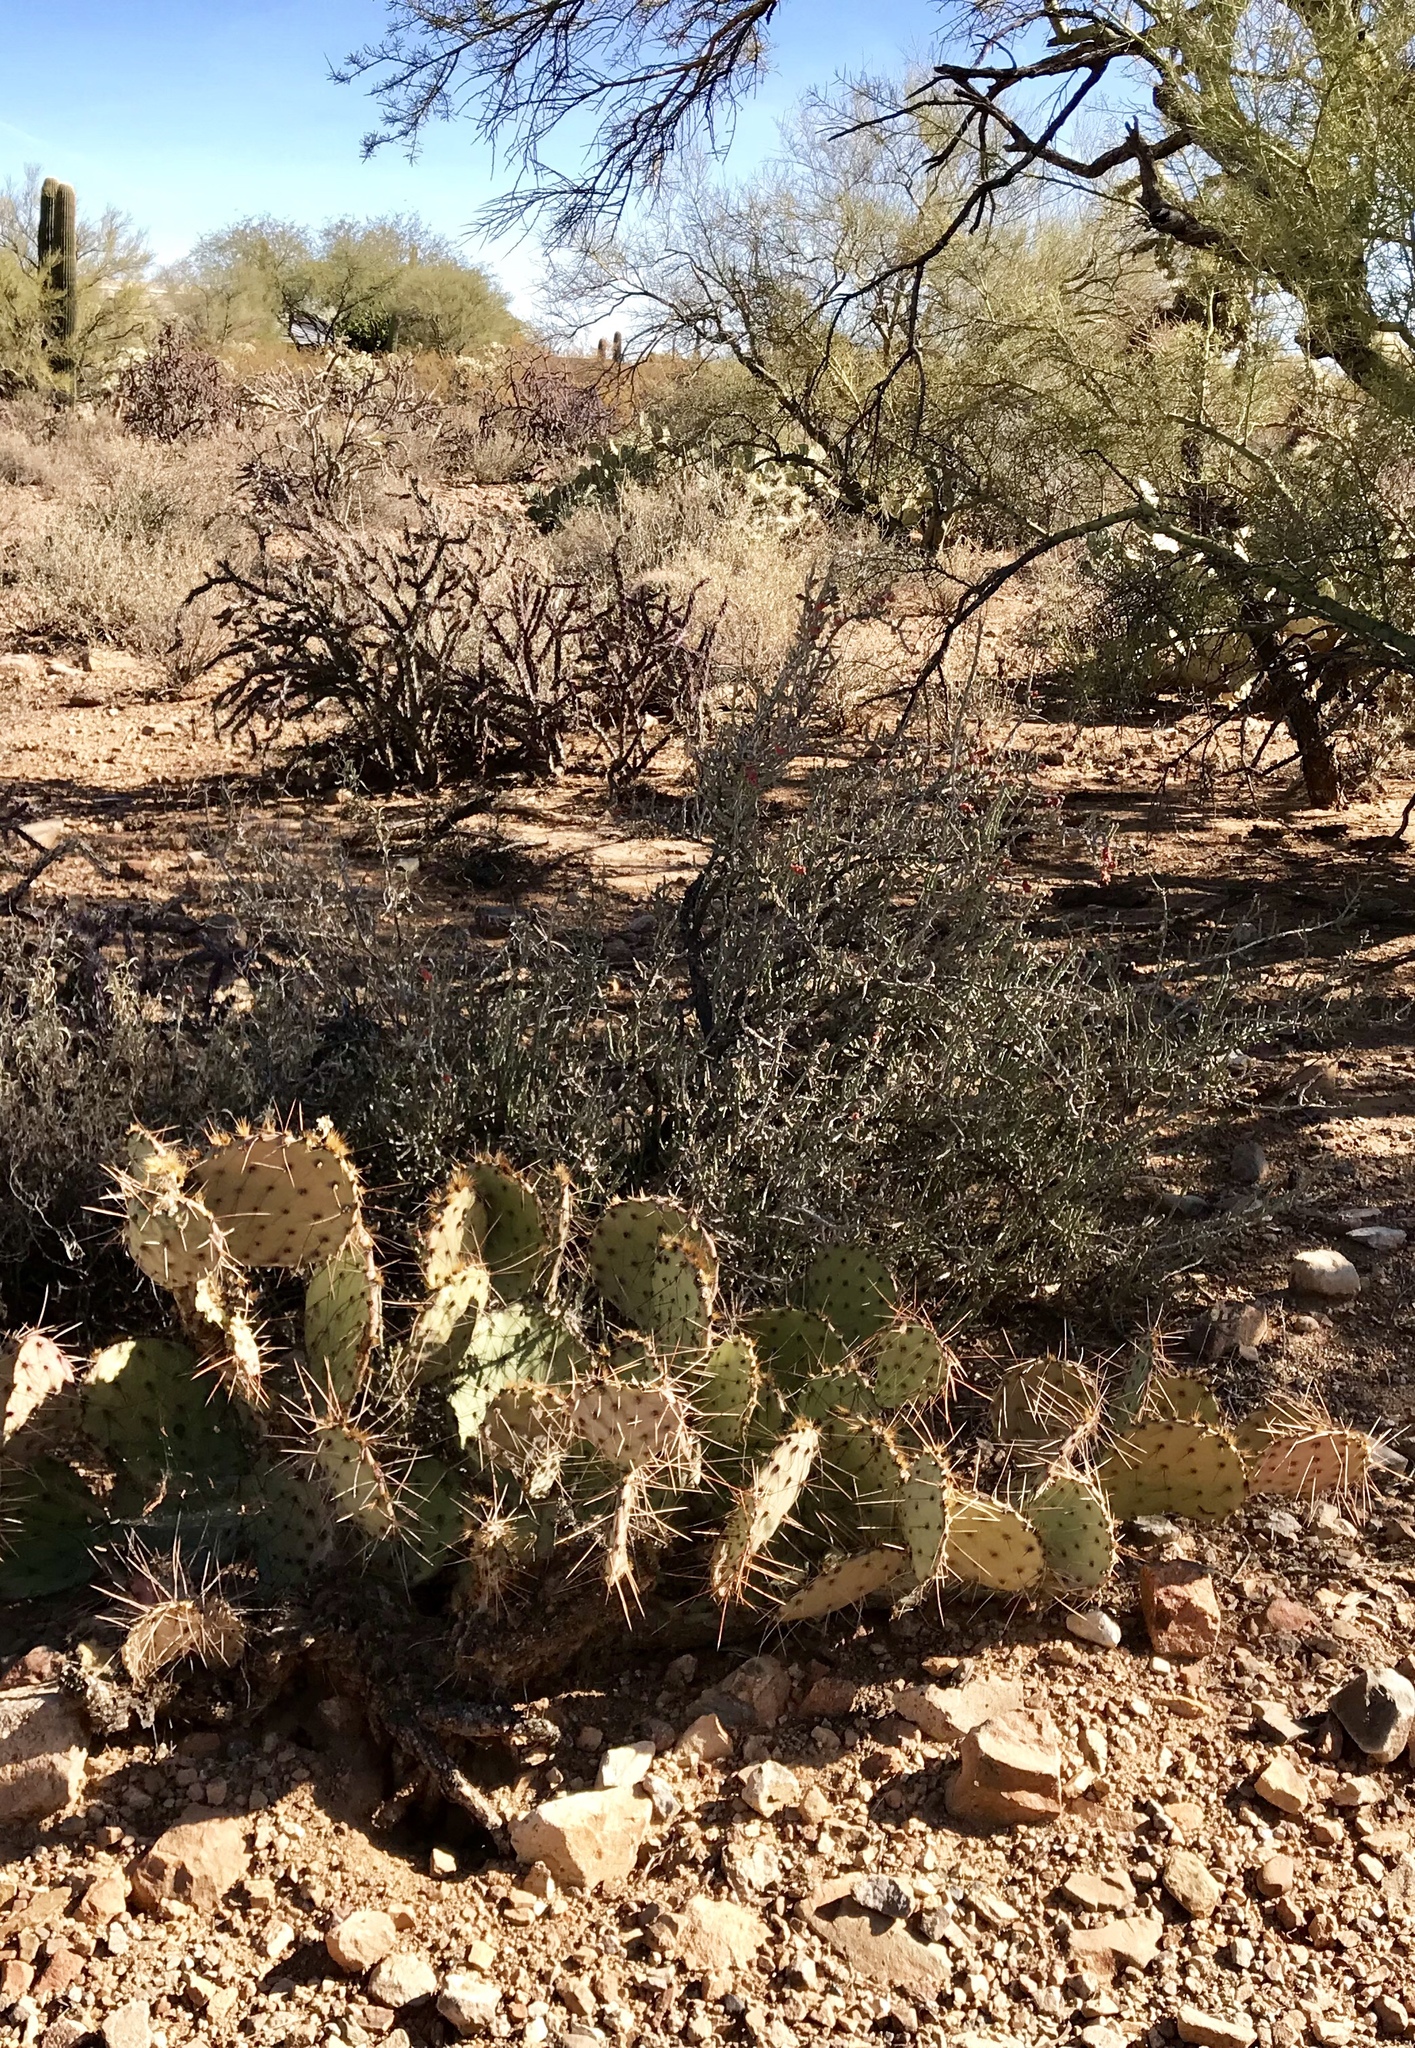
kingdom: Plantae
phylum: Tracheophyta
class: Magnoliopsida
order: Caryophyllales
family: Cactaceae
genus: Cylindropuntia
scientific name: Cylindropuntia leptocaulis
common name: Christmas cactus
